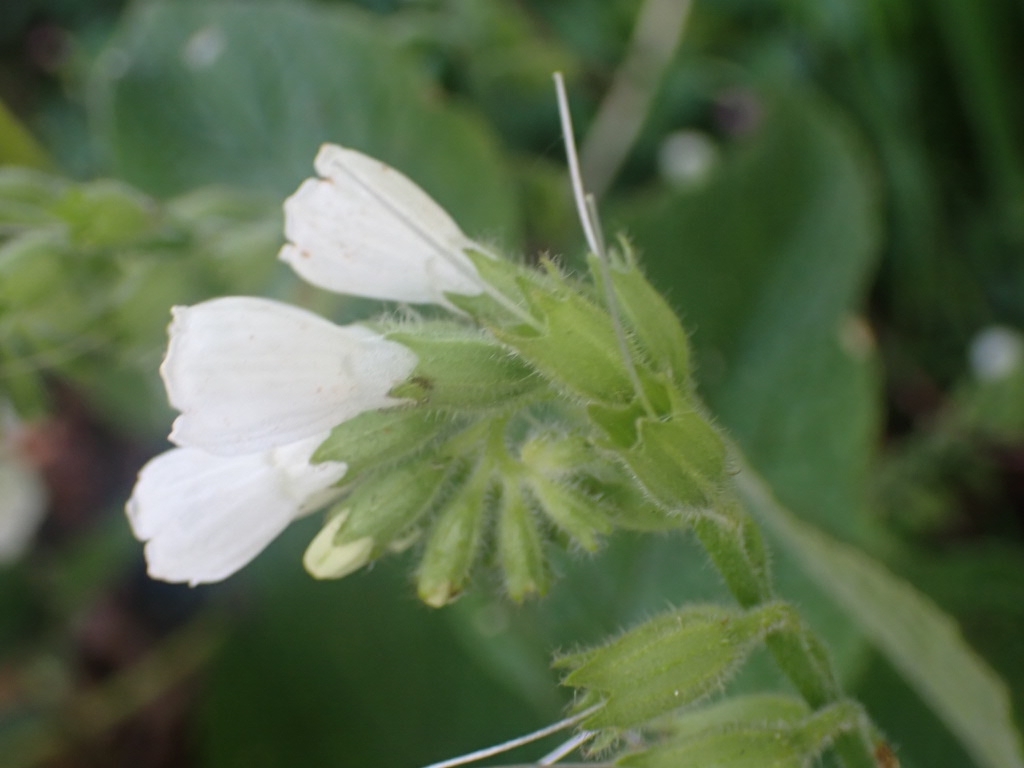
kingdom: Plantae
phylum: Tracheophyta
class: Magnoliopsida
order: Boraginales
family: Boraginaceae
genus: Symphytum
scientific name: Symphytum orientale
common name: White comfrey
